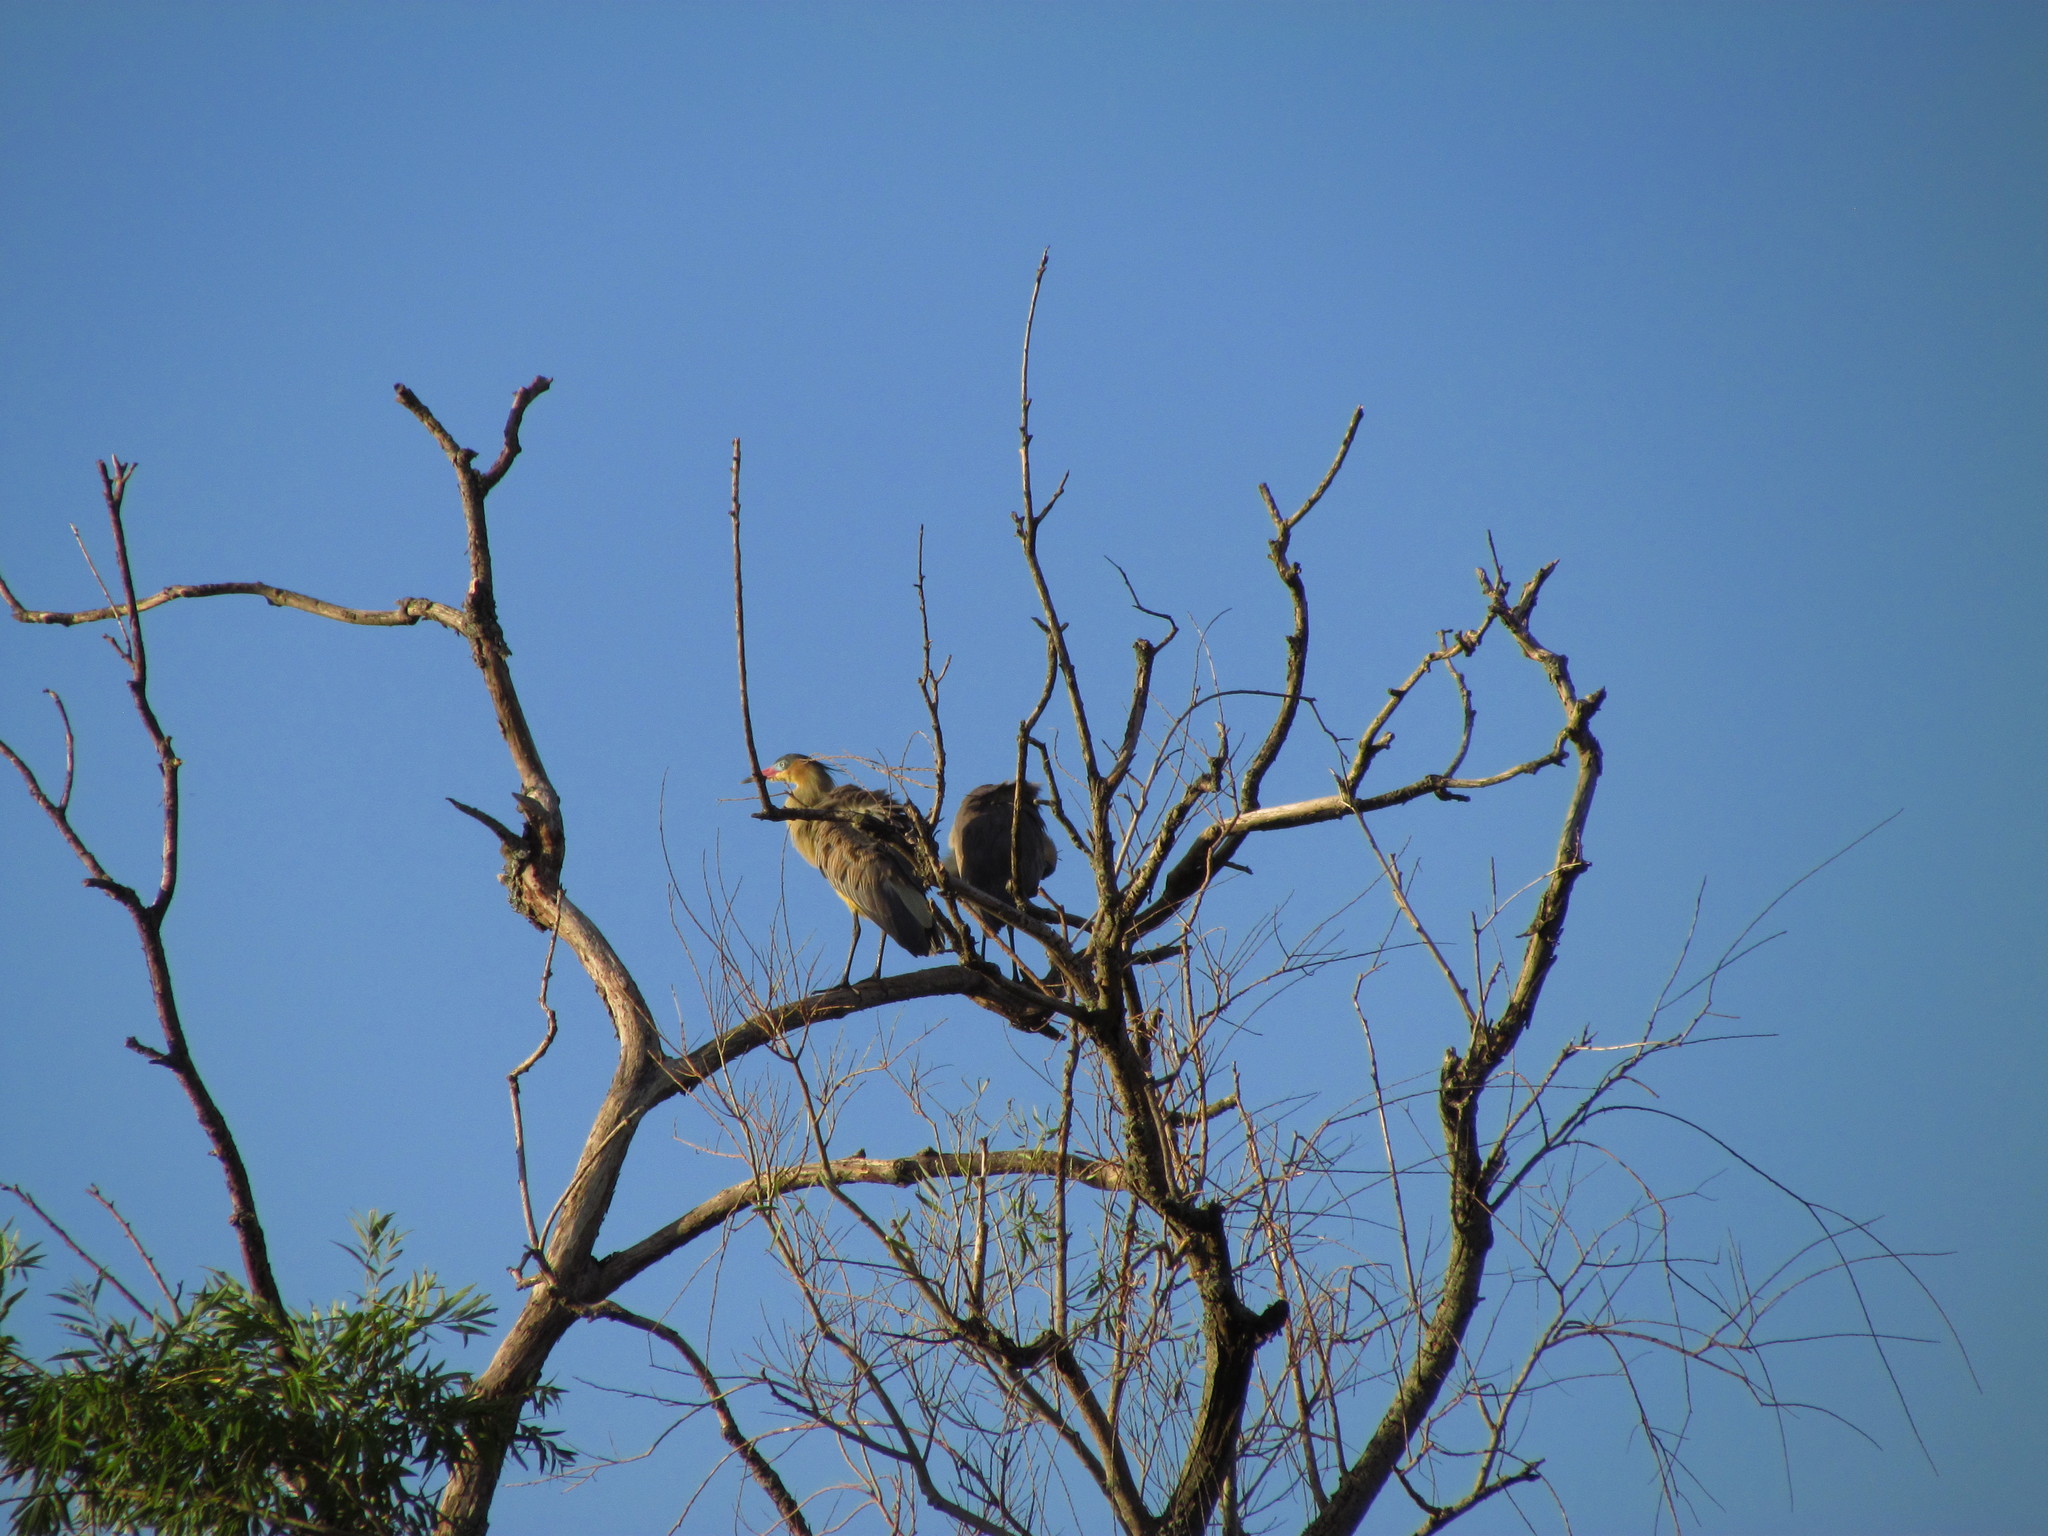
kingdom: Animalia
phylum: Chordata
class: Aves
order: Pelecaniformes
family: Ardeidae
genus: Syrigma
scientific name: Syrigma sibilatrix
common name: Whistling heron
